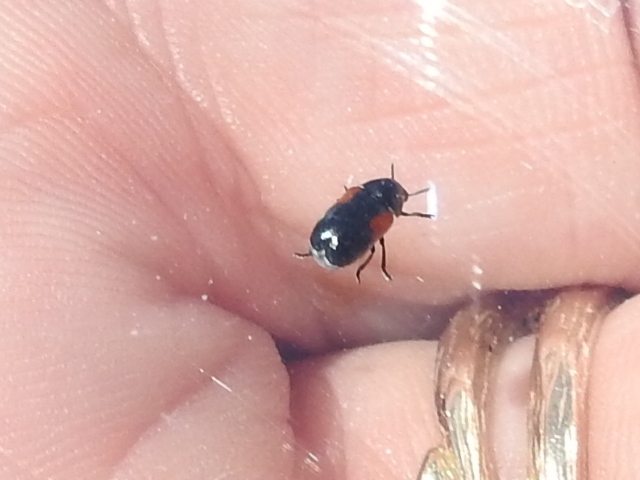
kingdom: Animalia
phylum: Arthropoda
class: Insecta
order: Coleoptera
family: Chrysomelidae
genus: Saxinis
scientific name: Saxinis omogera
